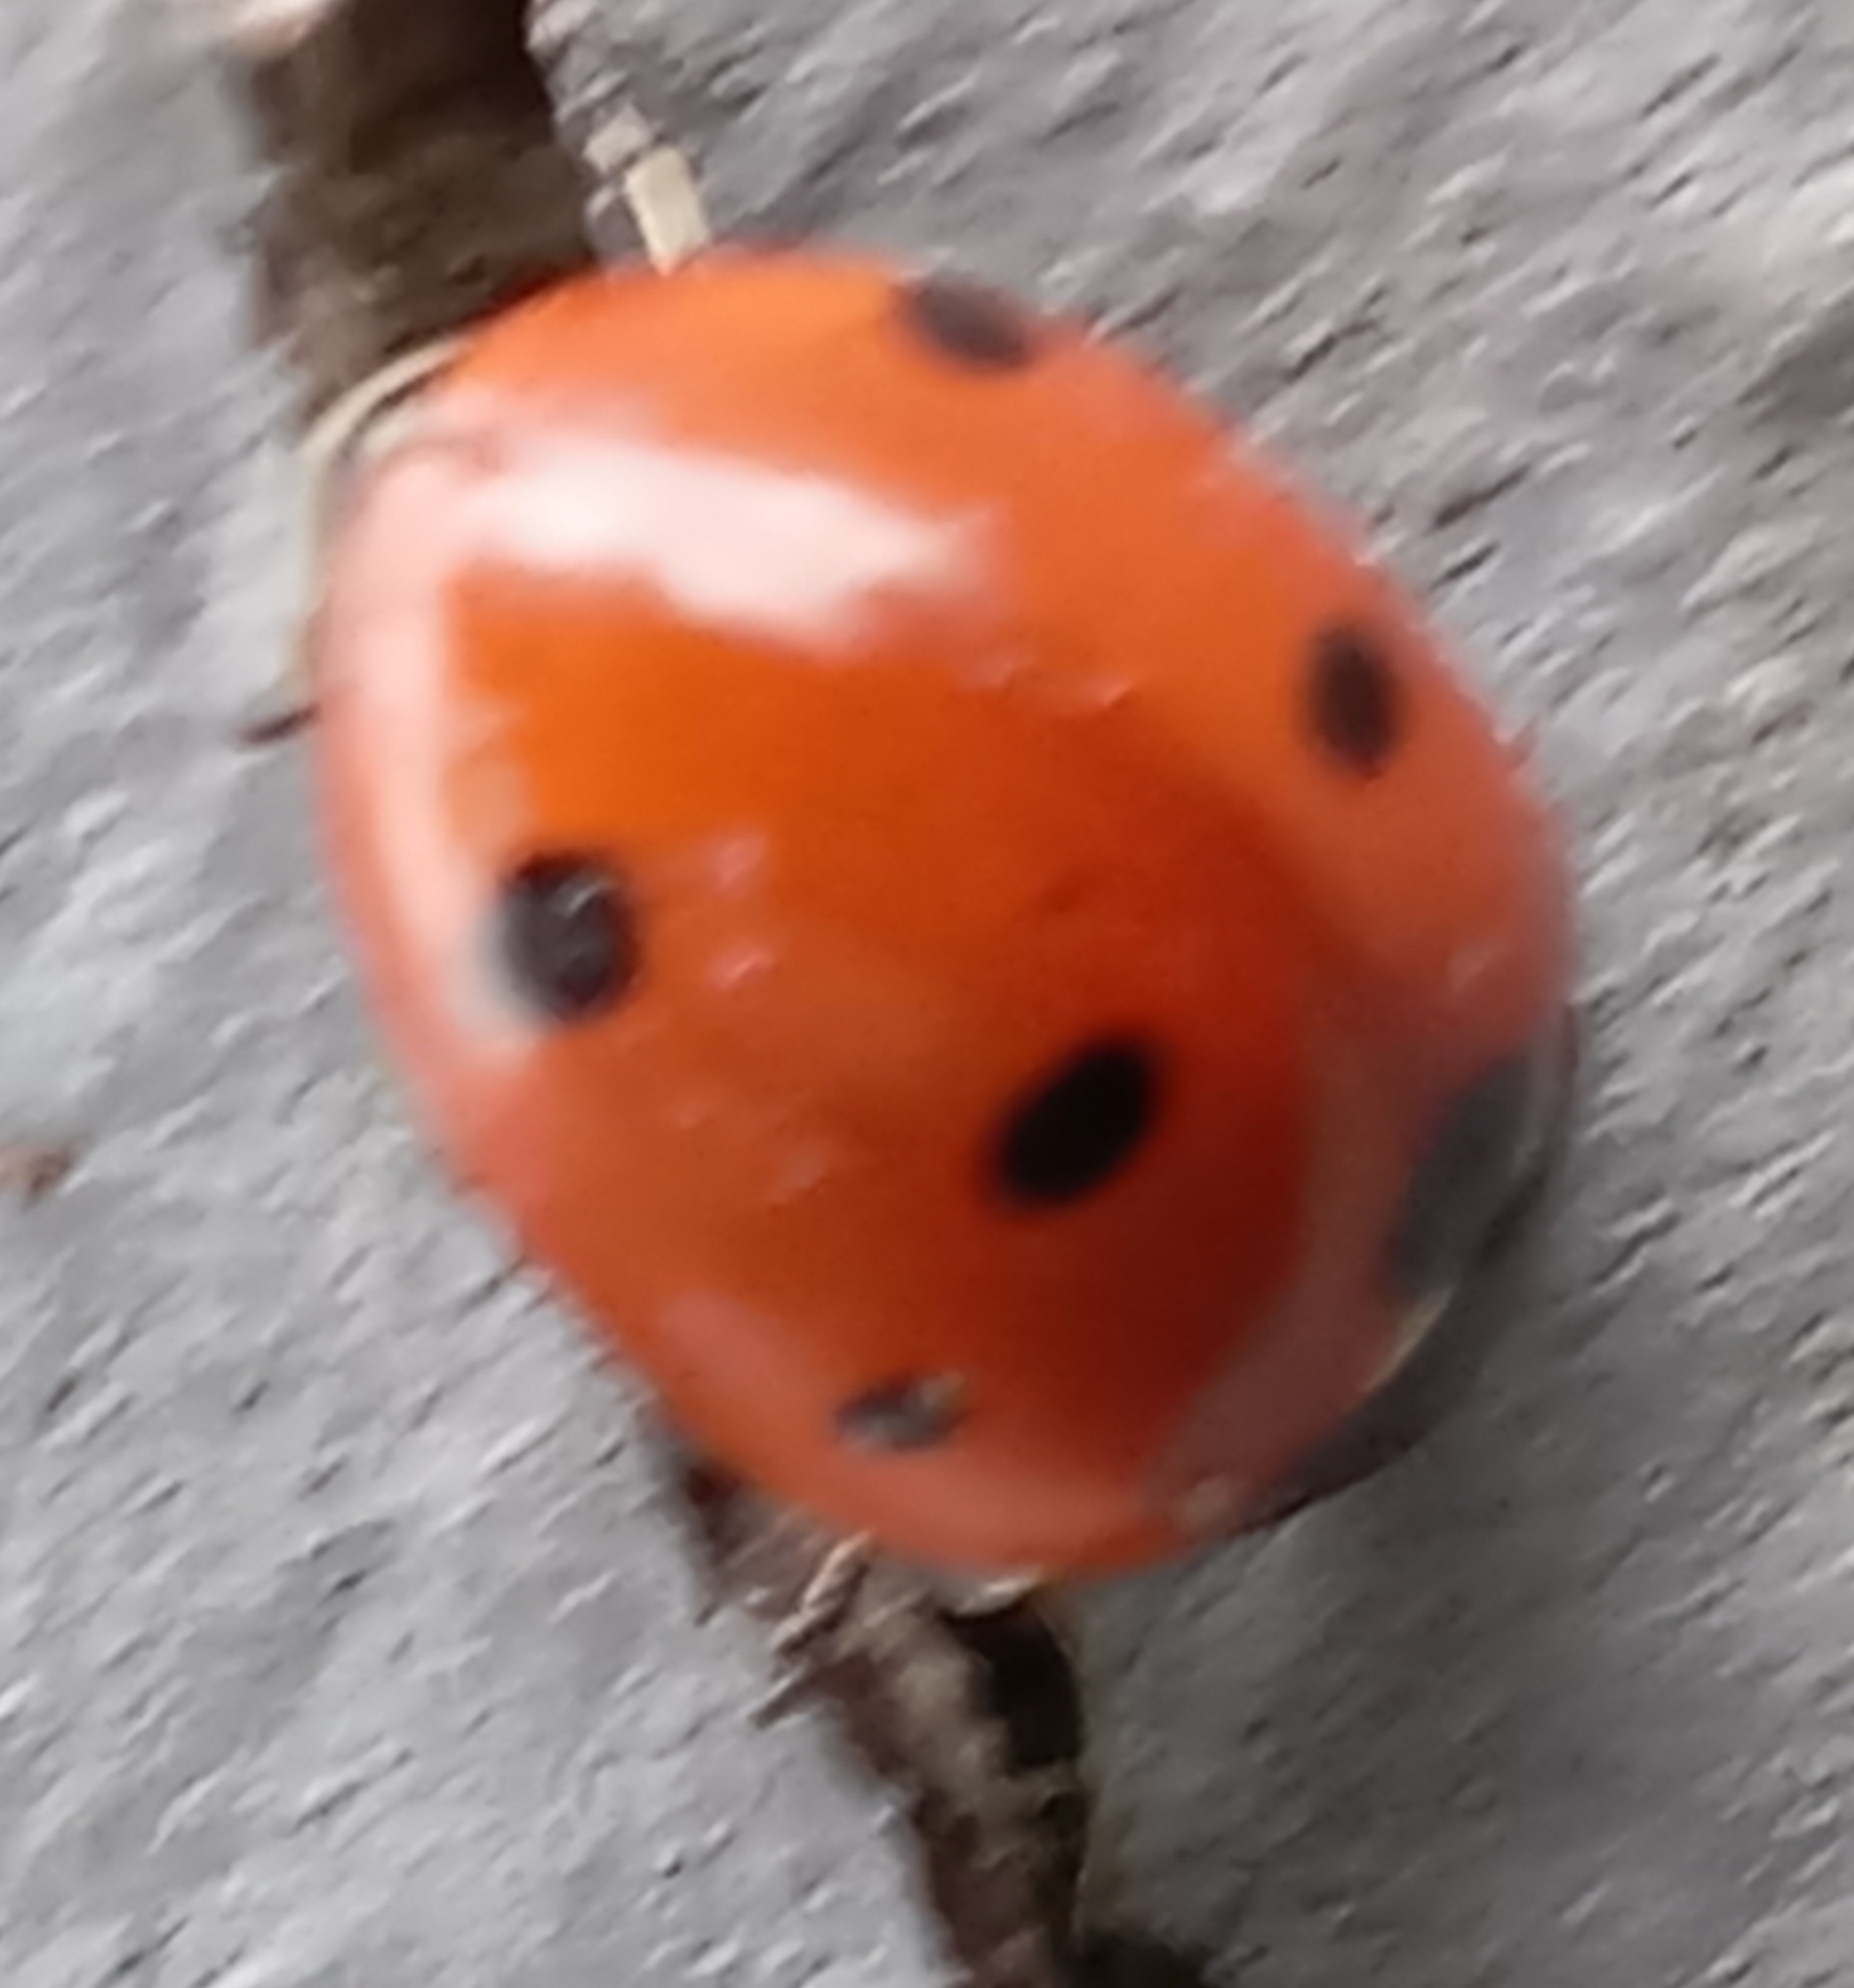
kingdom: Animalia
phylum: Arthropoda
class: Insecta
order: Coleoptera
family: Coccinellidae
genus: Coccinella
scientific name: Coccinella septempunctata
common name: Sevenspotted lady beetle
